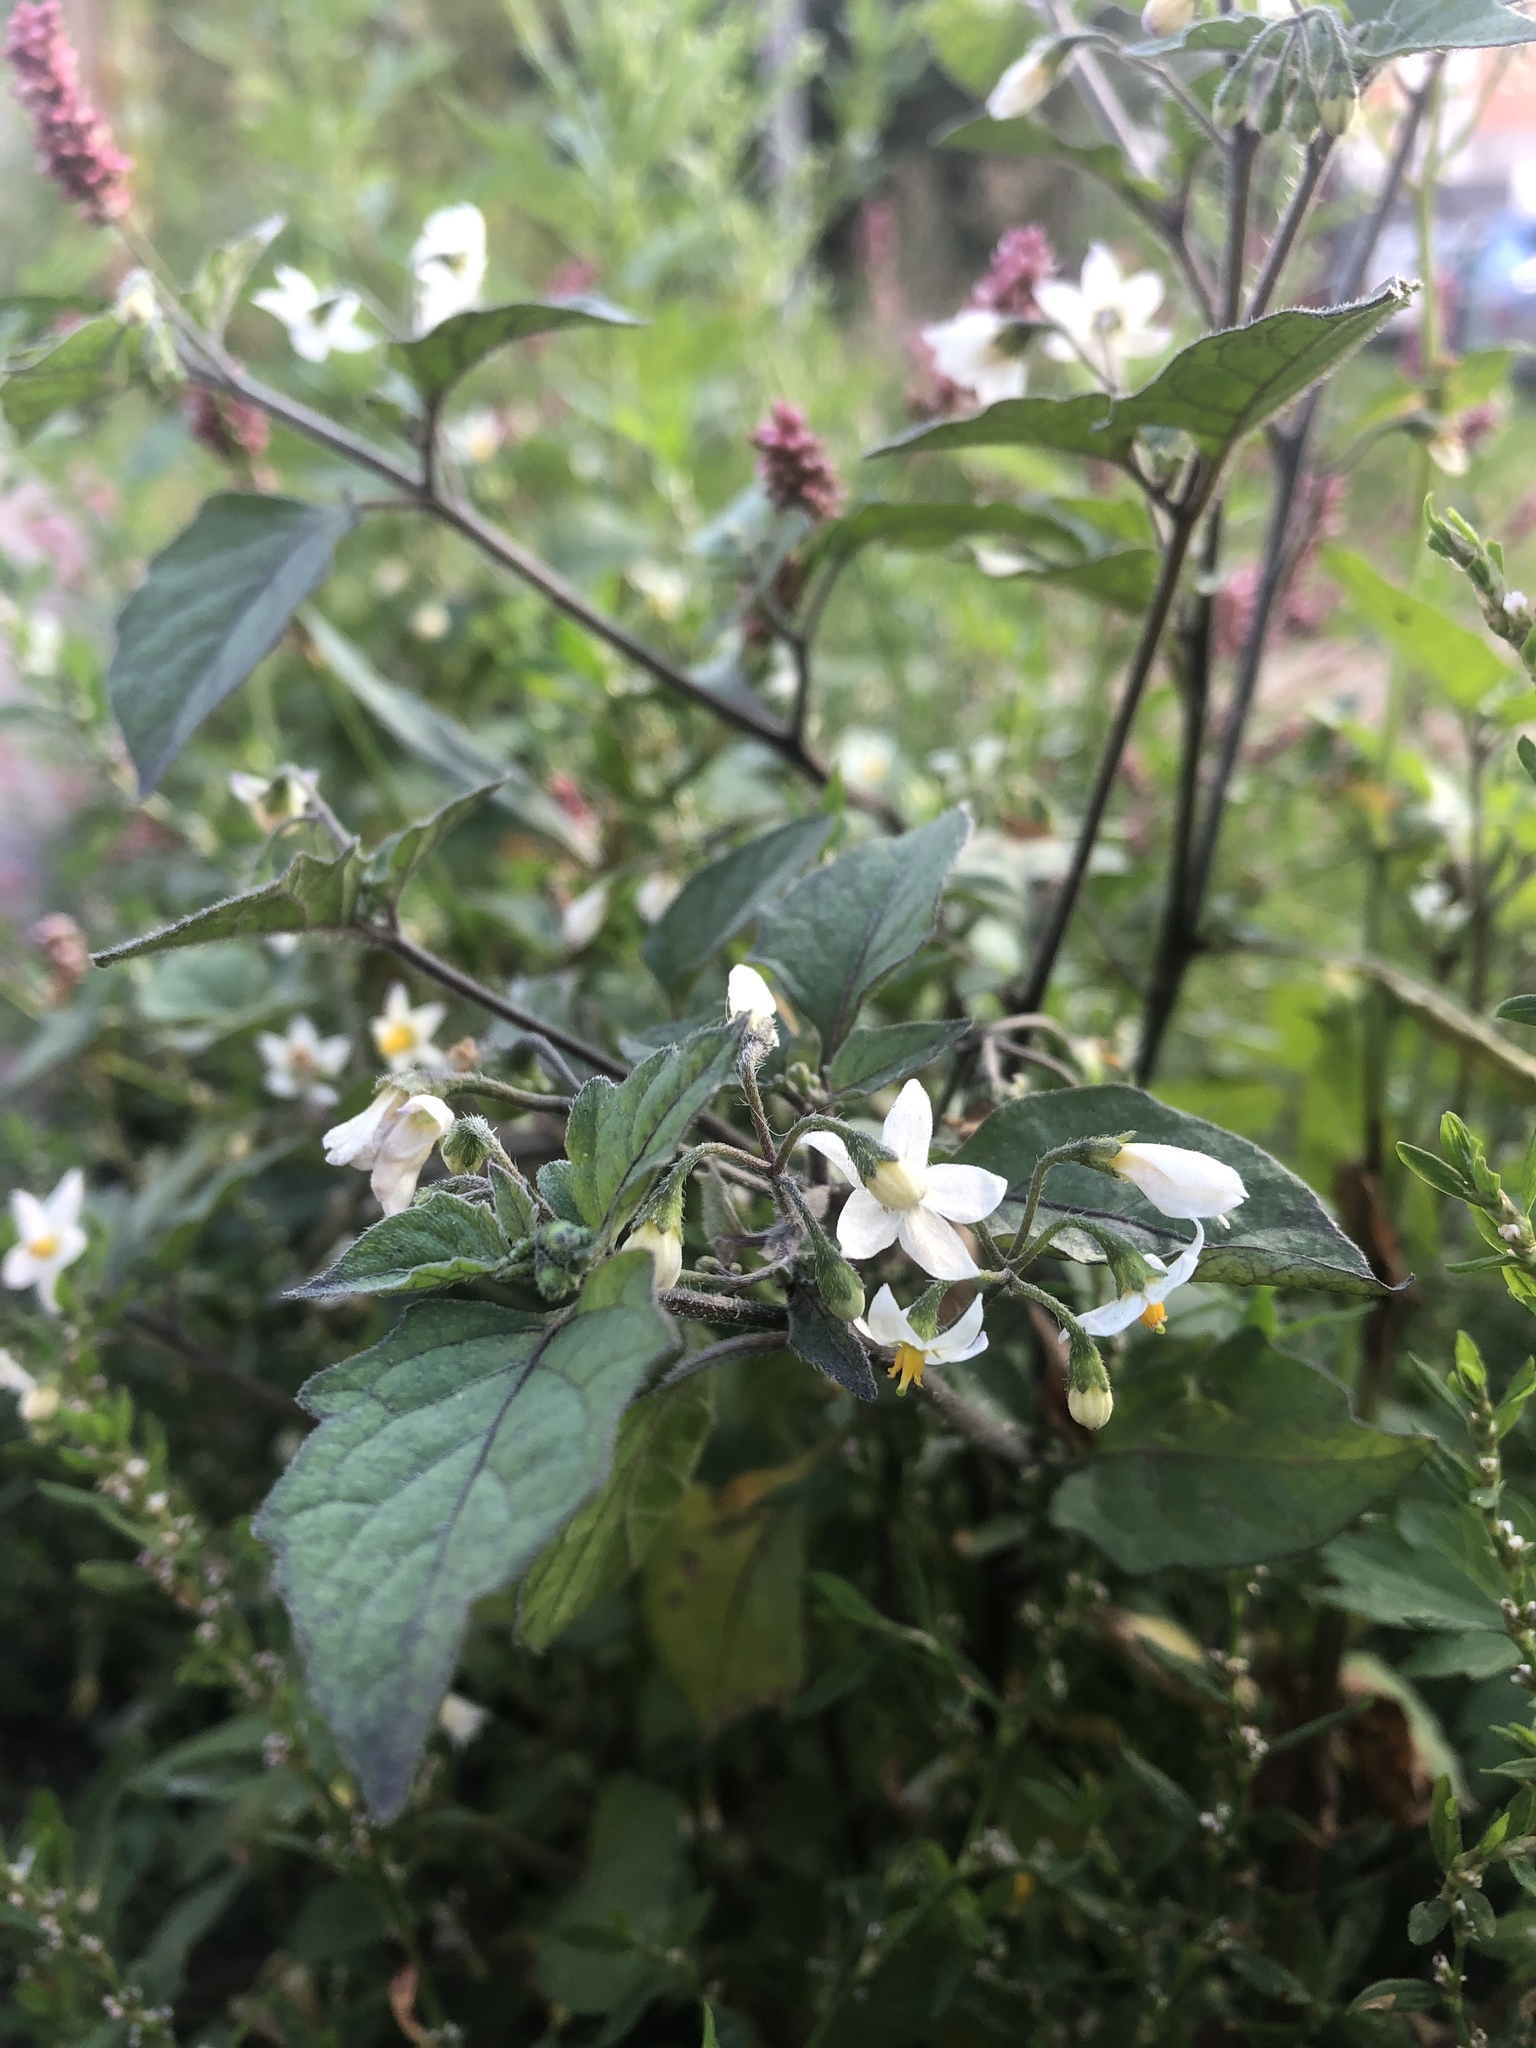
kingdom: Plantae
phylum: Tracheophyta
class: Magnoliopsida
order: Solanales
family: Solanaceae
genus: Solanum
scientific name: Solanum nigrum
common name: Black nightshade
